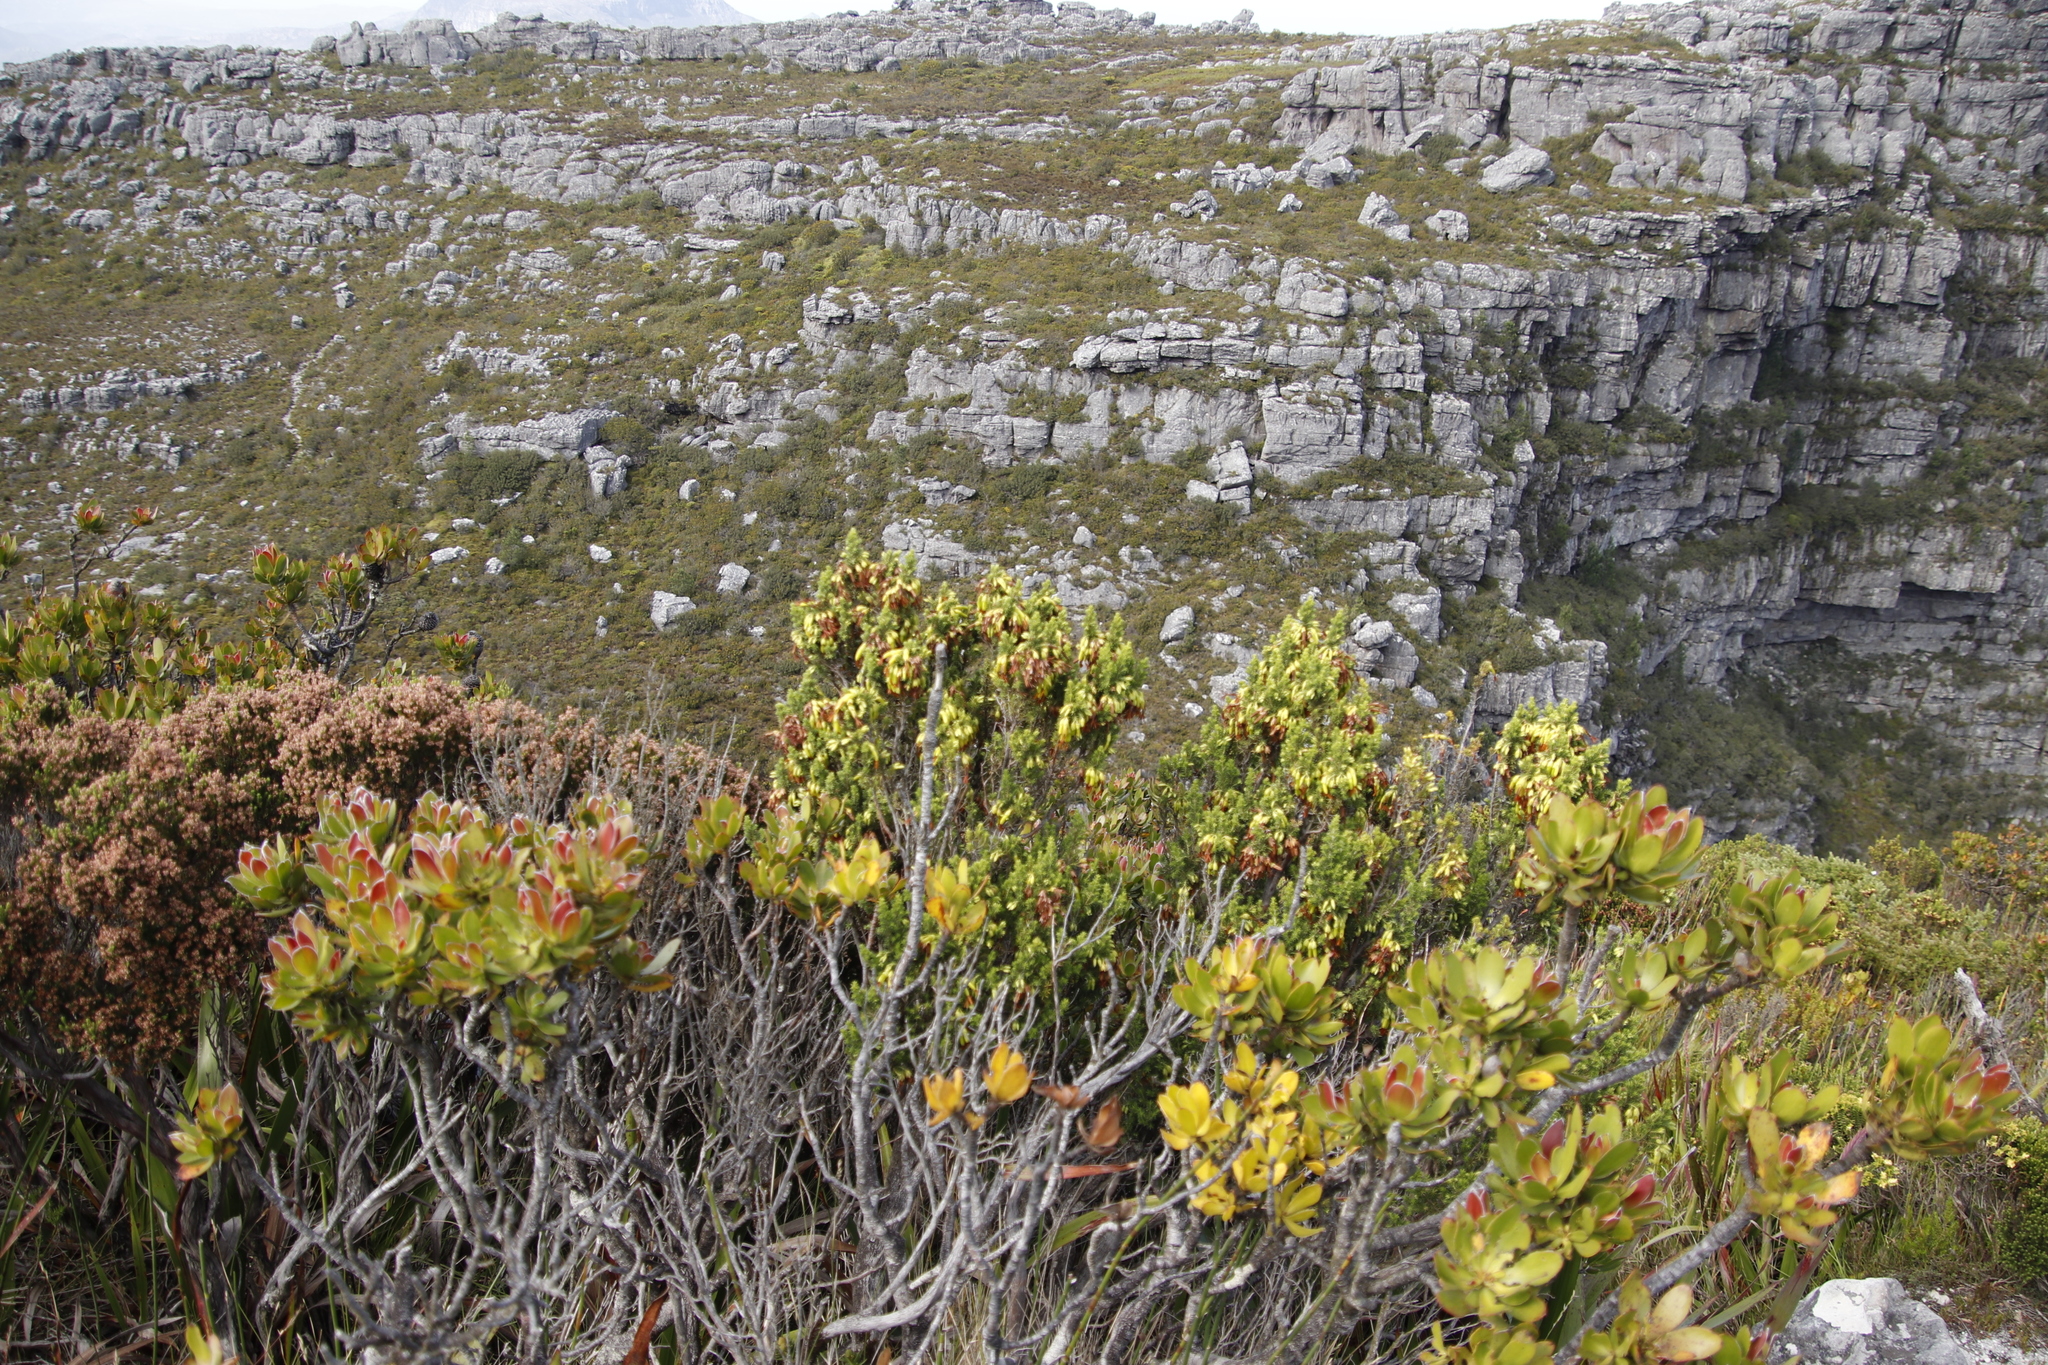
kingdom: Plantae
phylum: Tracheophyta
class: Magnoliopsida
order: Ericales
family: Ericaceae
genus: Erica
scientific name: Erica coccinea
